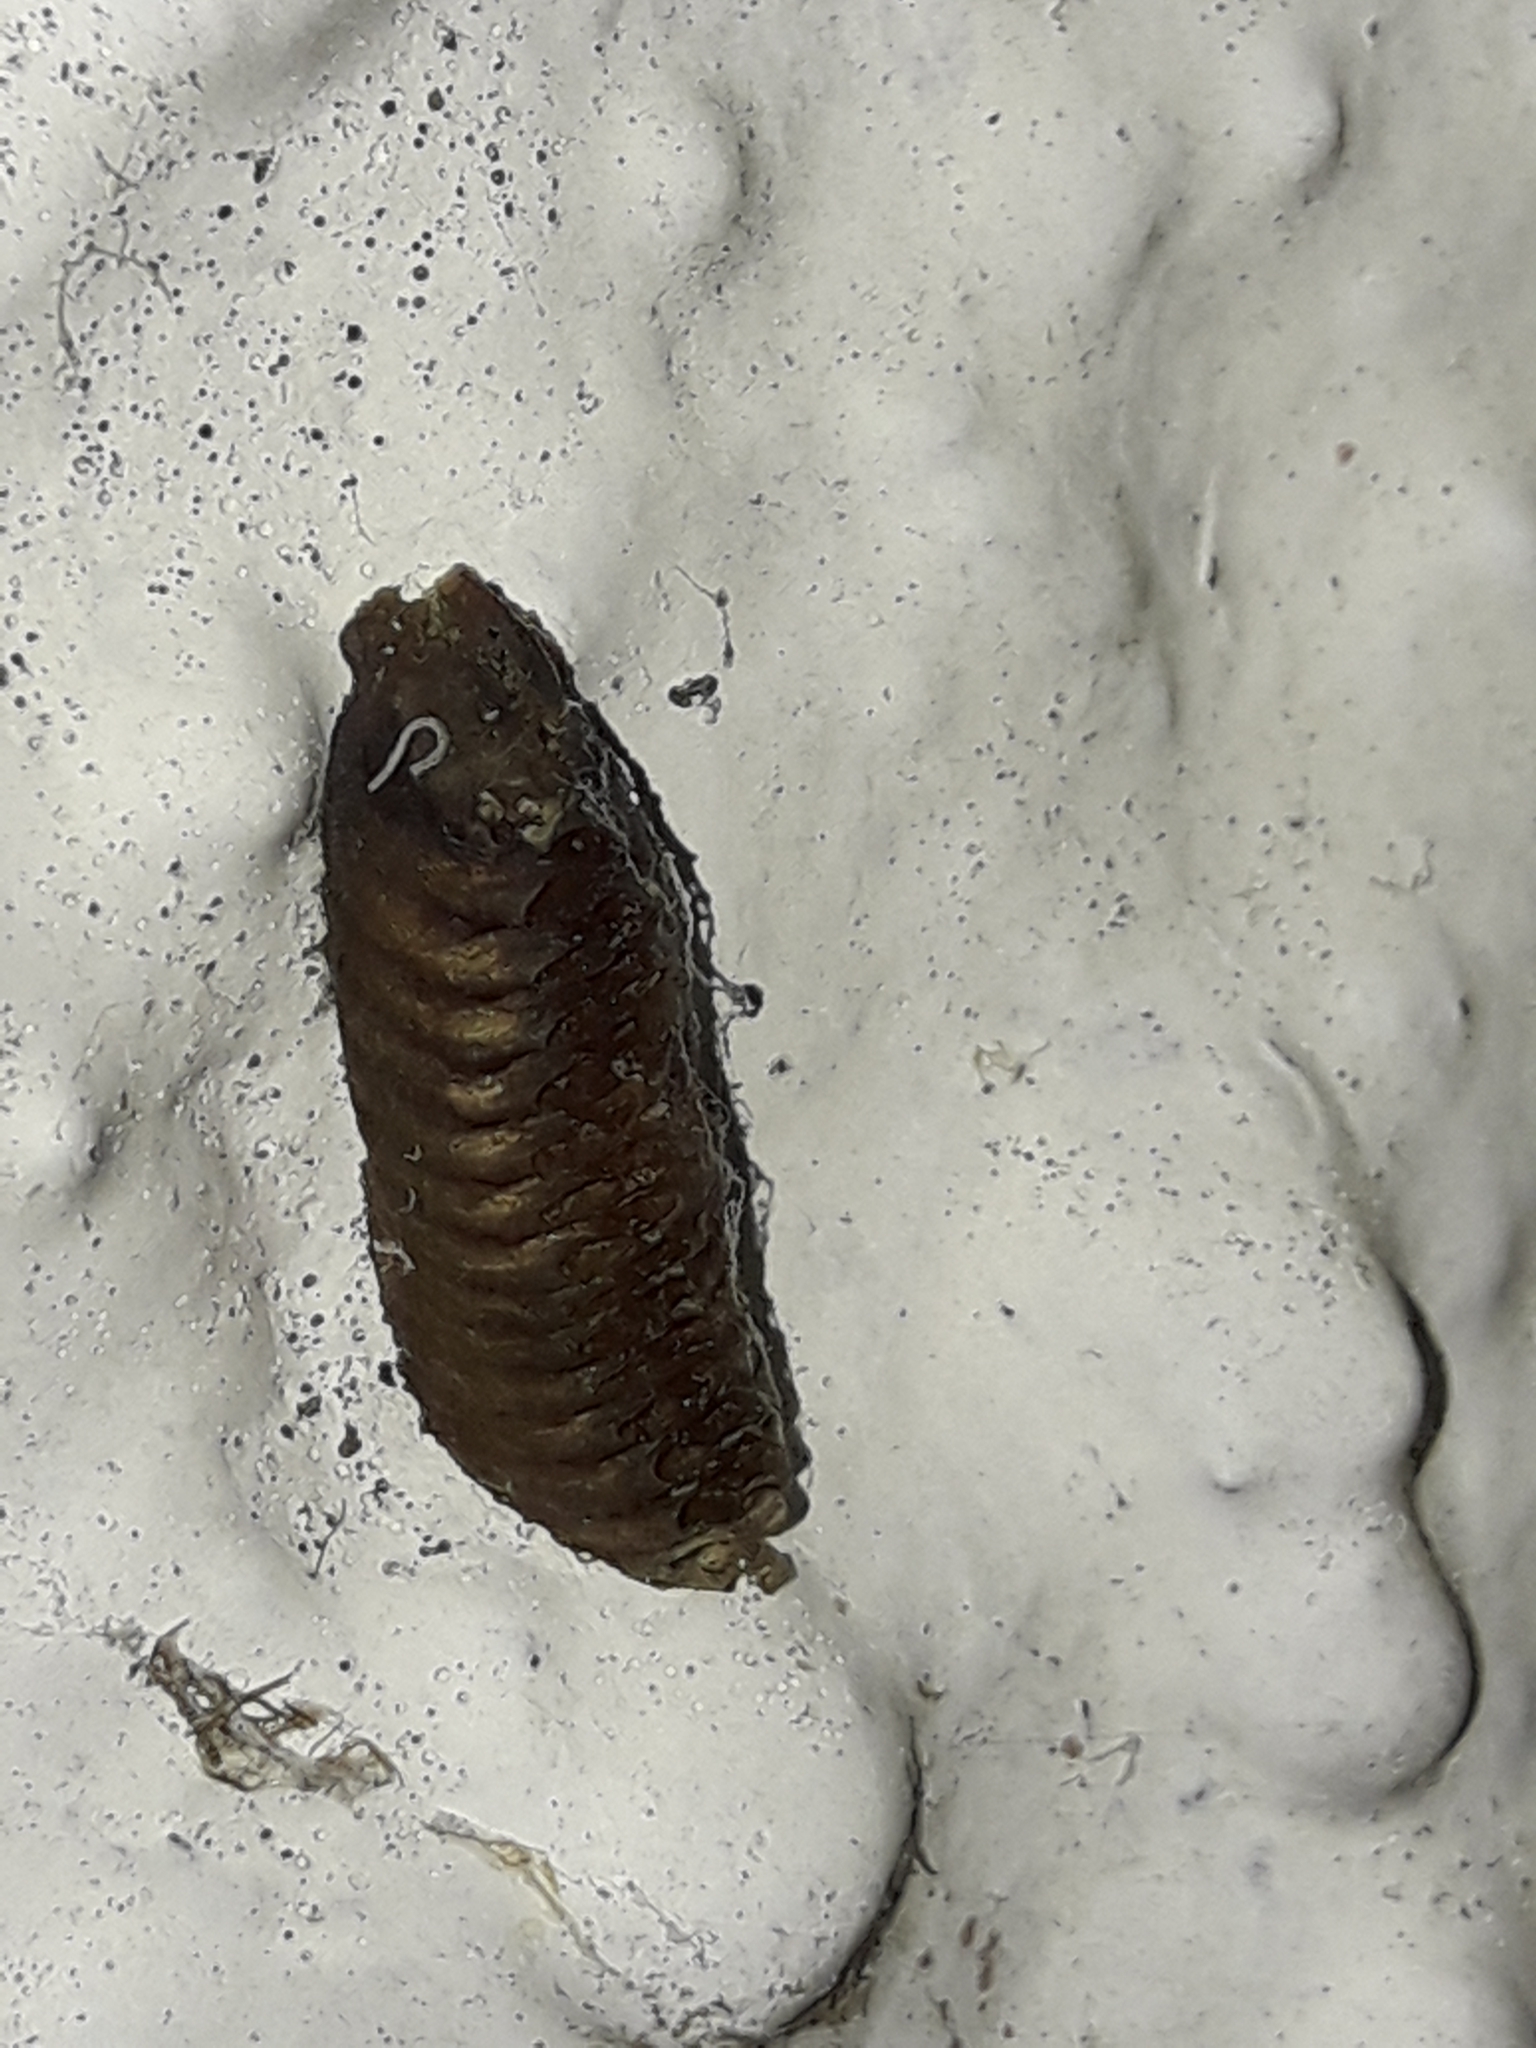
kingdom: Animalia
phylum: Arthropoda
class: Insecta
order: Mantodea
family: Mantidae
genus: Orthodera
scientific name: Orthodera novaezealandiae
